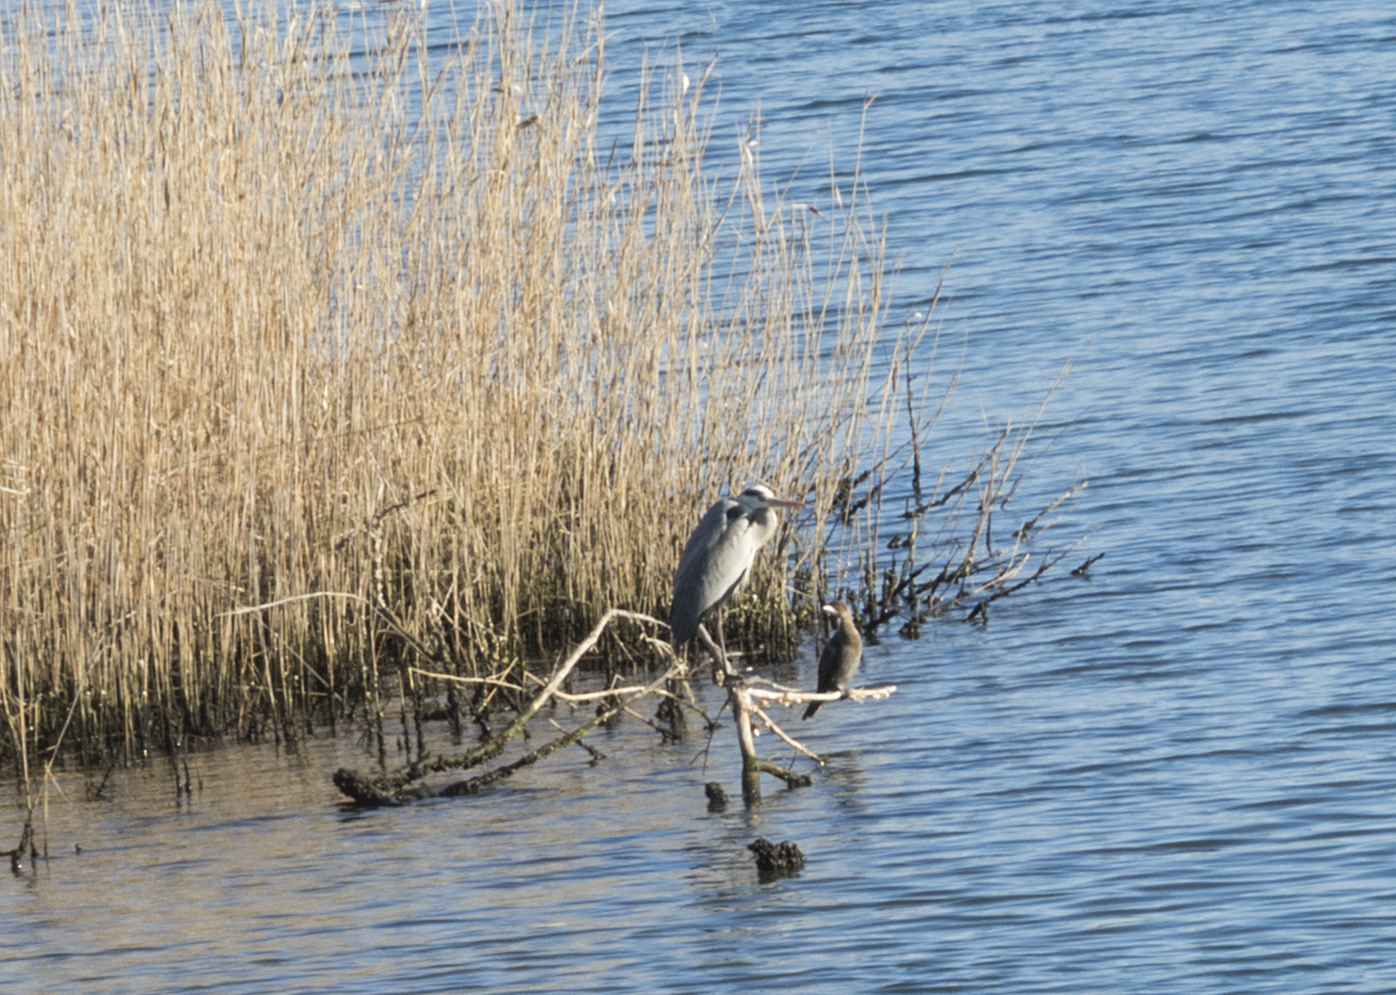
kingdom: Animalia
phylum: Chordata
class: Aves
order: Pelecaniformes
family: Ardeidae
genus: Ardea
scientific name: Ardea cinerea
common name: Grey heron
